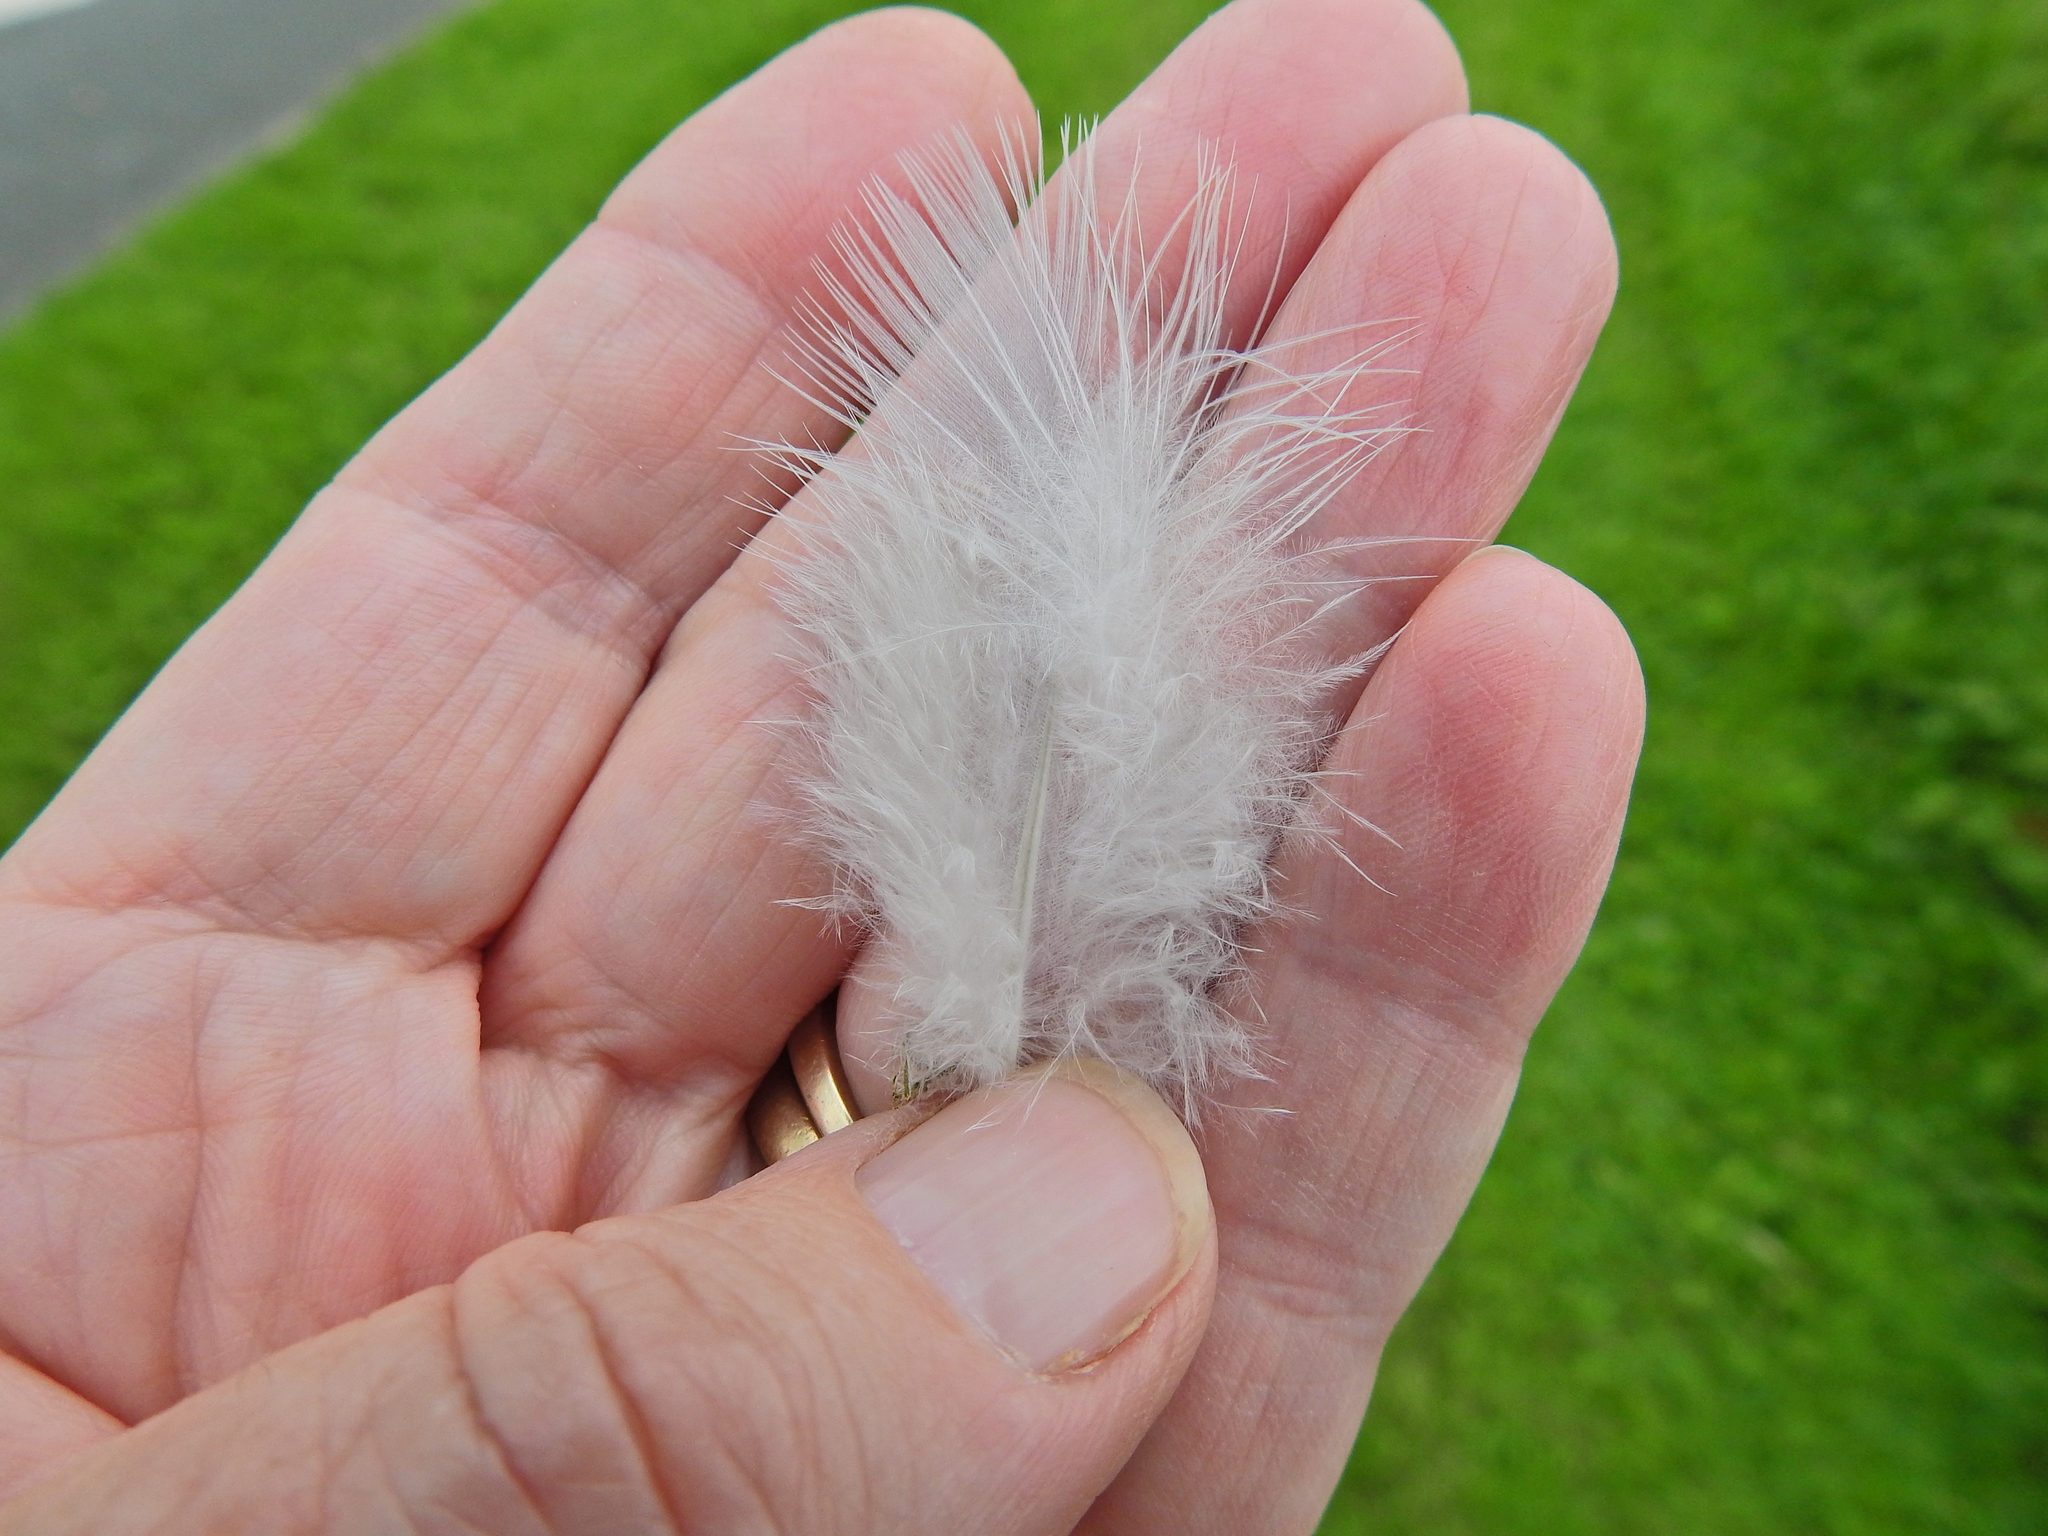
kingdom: Animalia
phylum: Chordata
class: Aves
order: Columbiformes
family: Columbidae
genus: Columba
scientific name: Columba palumbus
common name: Common wood pigeon
